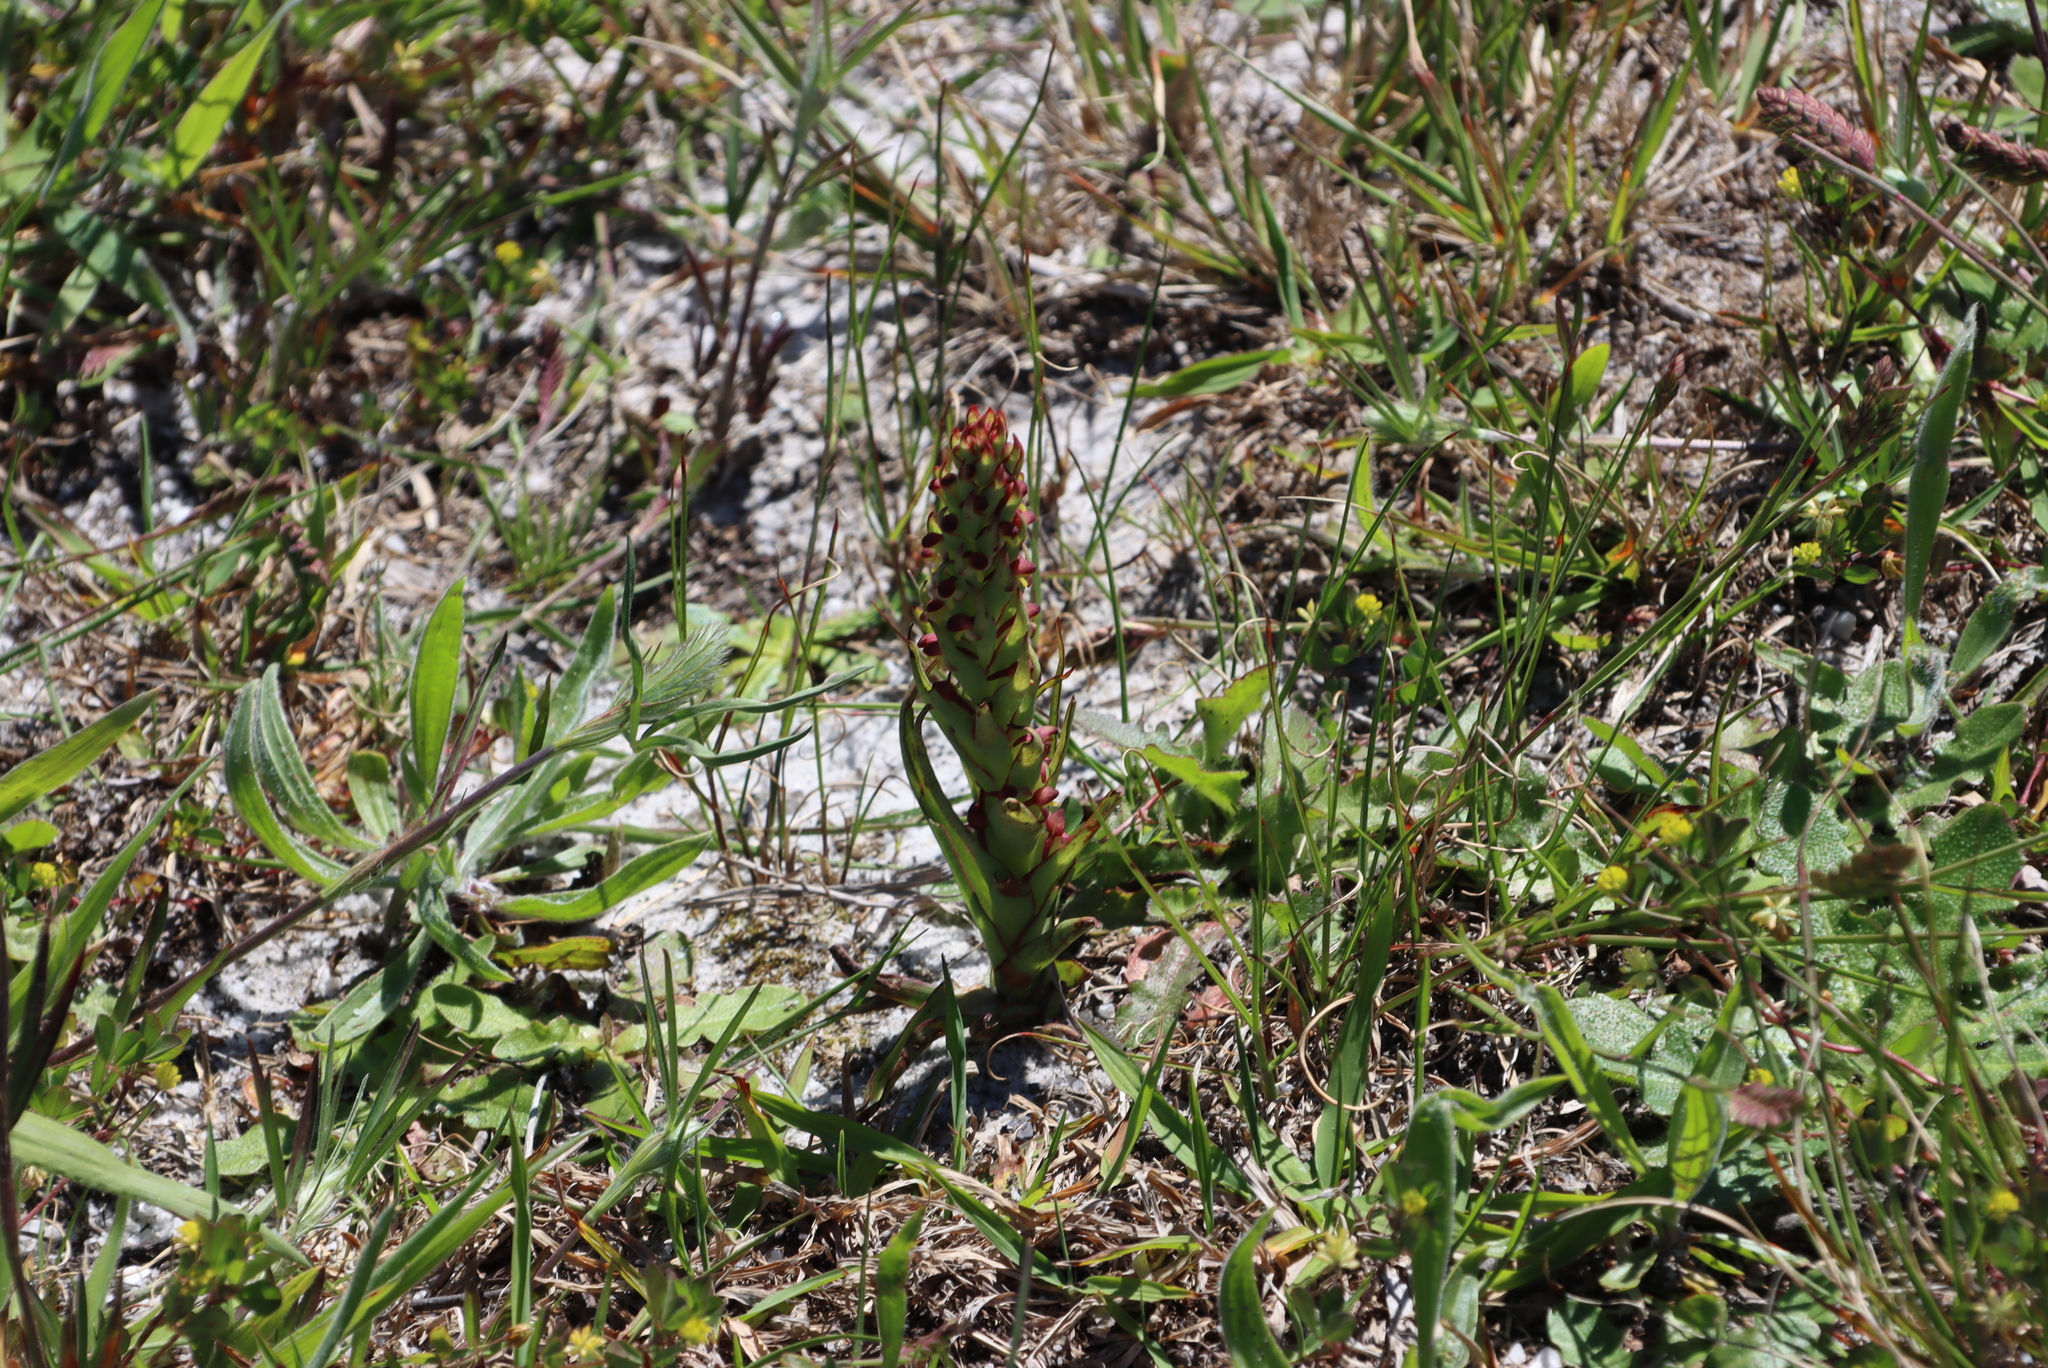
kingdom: Plantae
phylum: Tracheophyta
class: Liliopsida
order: Asparagales
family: Orchidaceae
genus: Disa
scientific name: Disa bracteata
